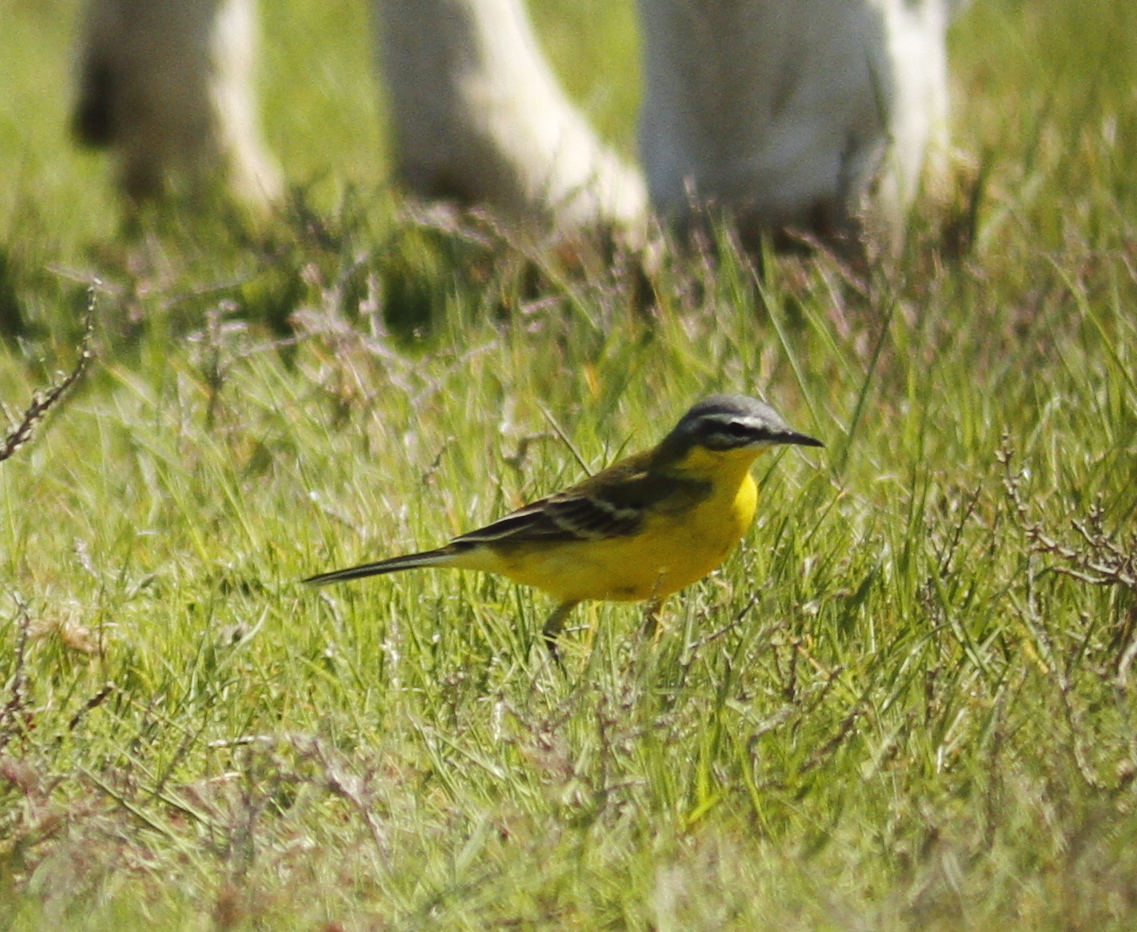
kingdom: Animalia
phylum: Chordata
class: Aves
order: Passeriformes
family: Motacillidae
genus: Motacilla
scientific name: Motacilla flava
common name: Western yellow wagtail
